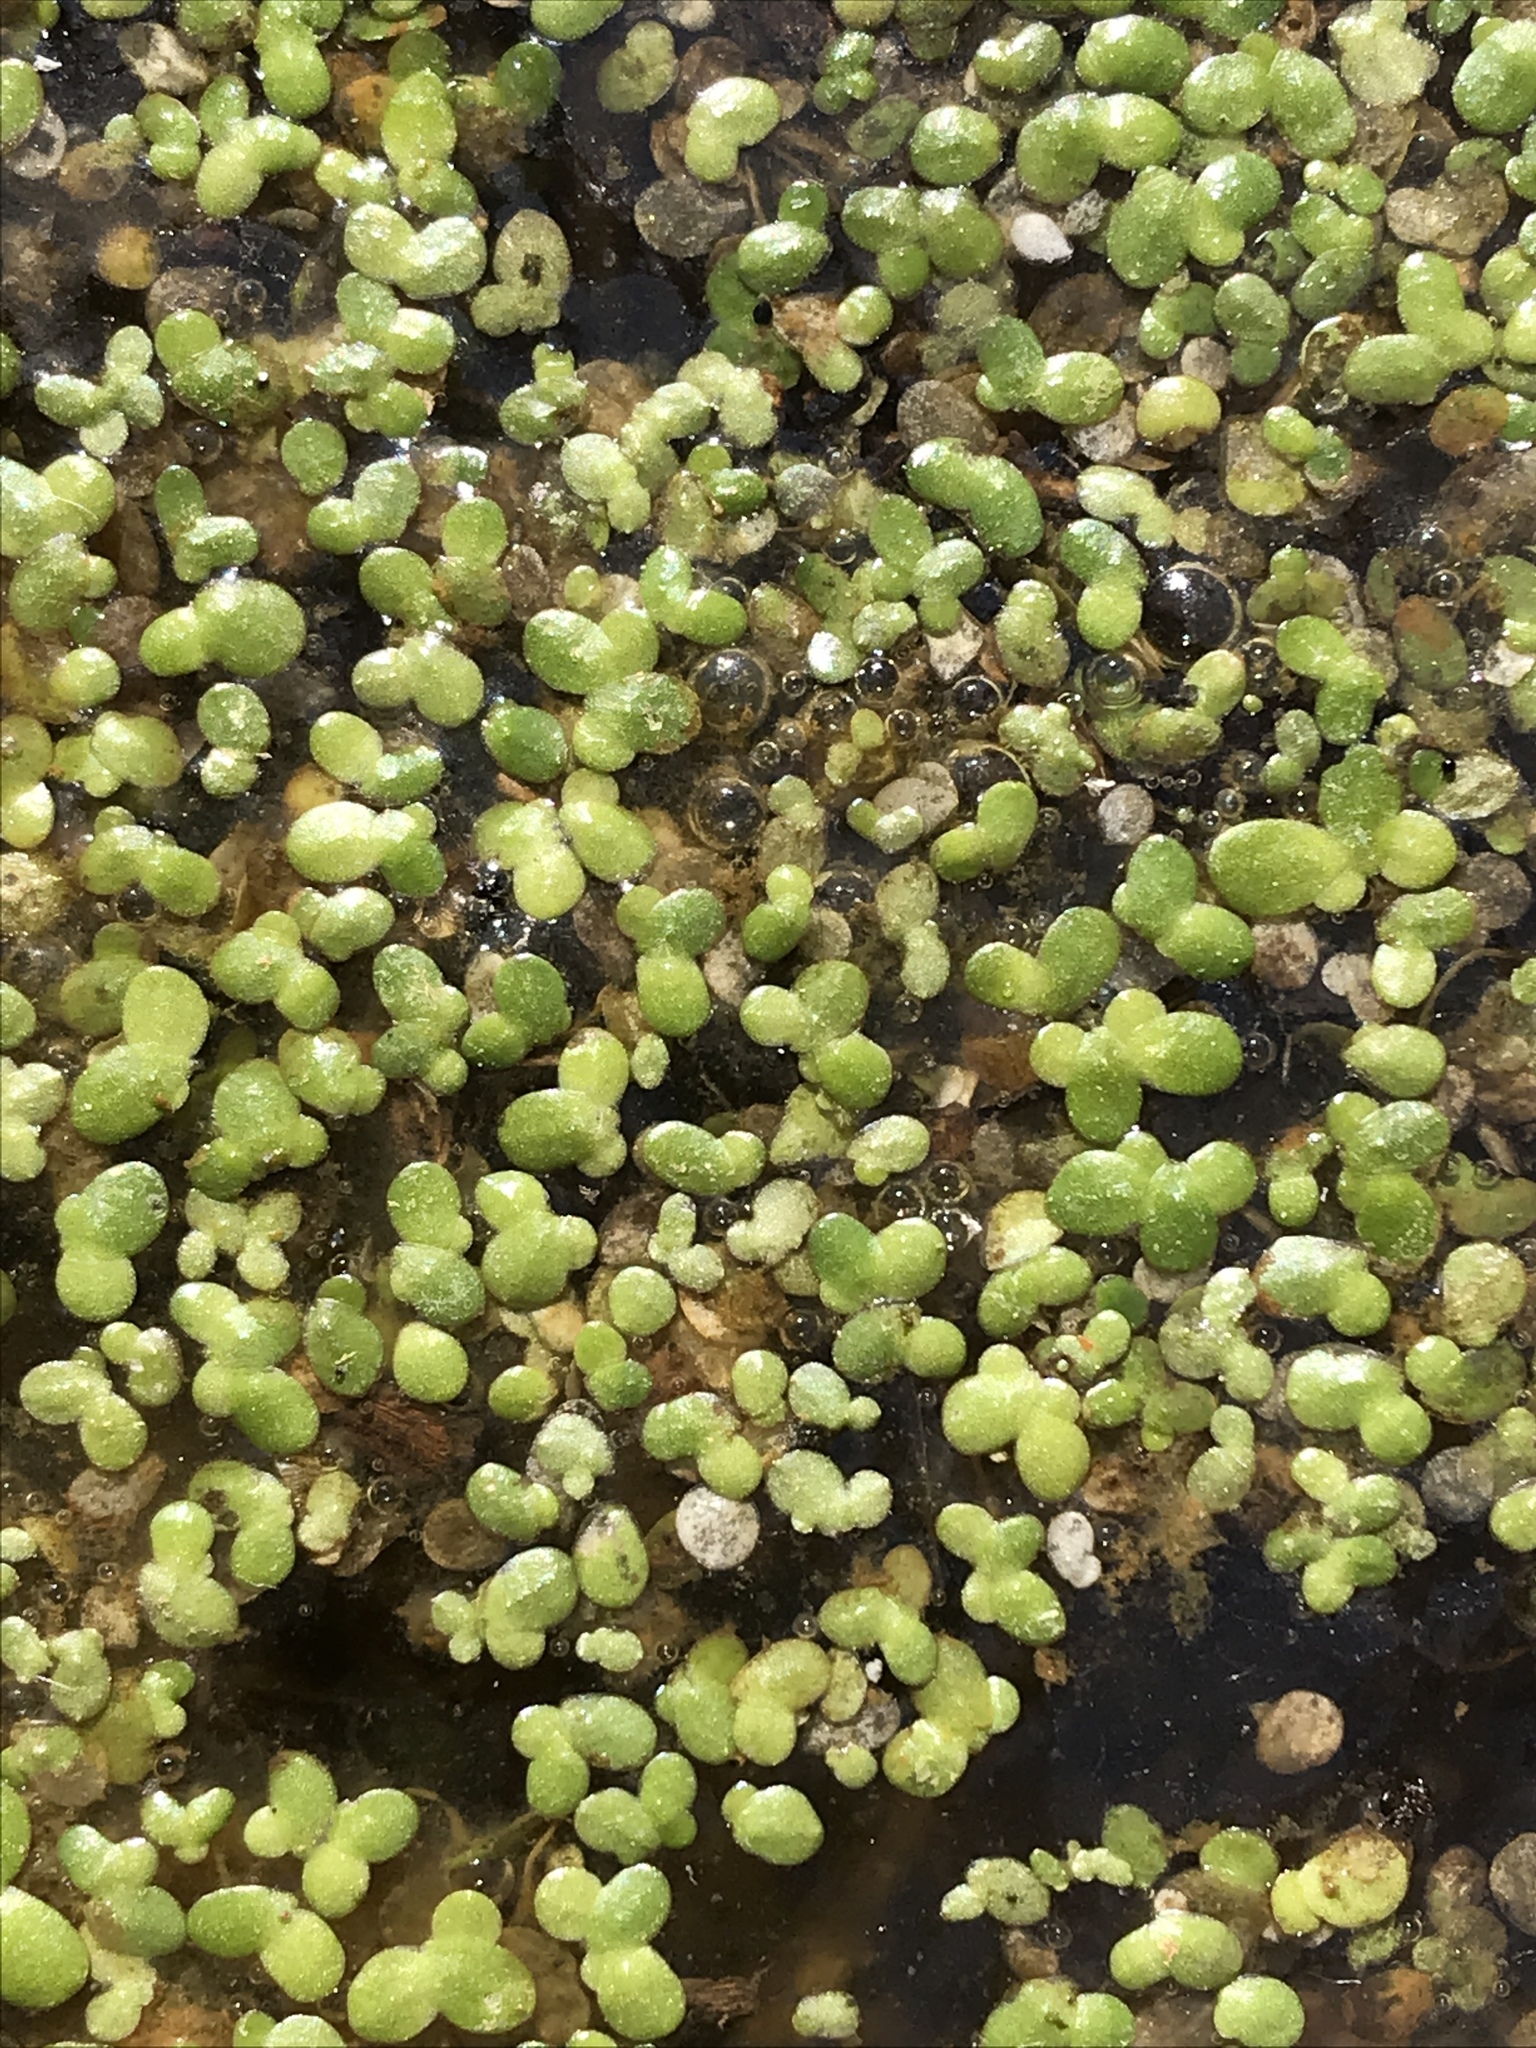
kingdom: Plantae
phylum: Tracheophyta
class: Liliopsida
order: Alismatales
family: Araceae
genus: Lemna
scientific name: Lemna minor
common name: Common duckweed
